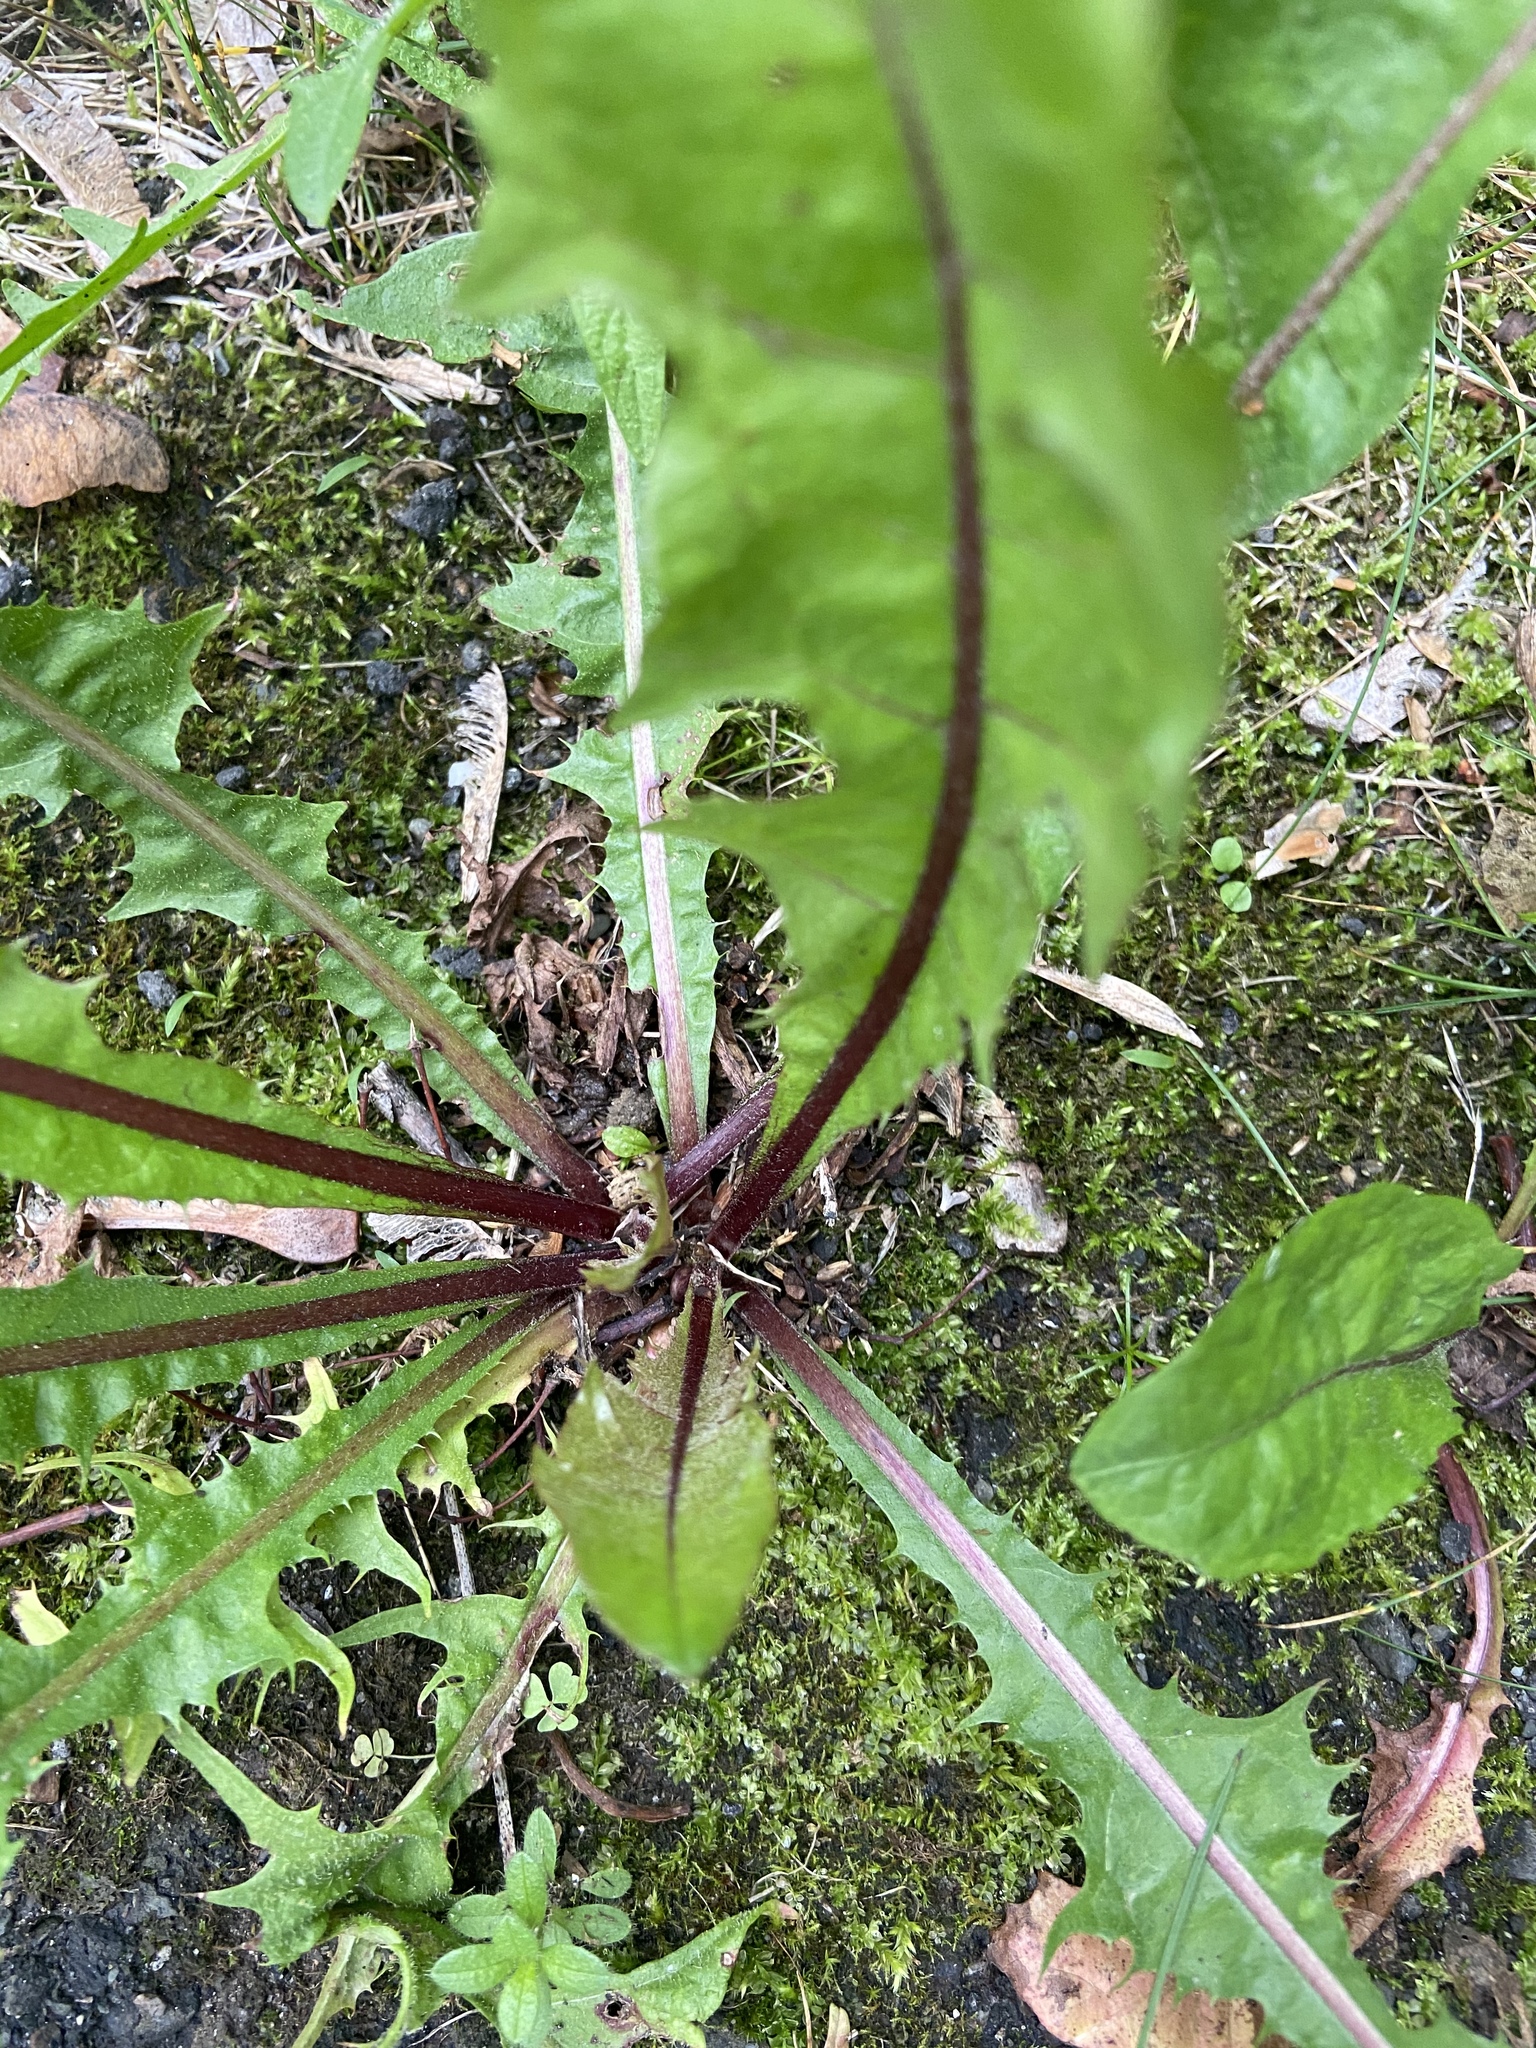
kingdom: Plantae
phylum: Tracheophyta
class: Magnoliopsida
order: Asterales
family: Asteraceae
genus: Taraxacum
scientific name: Taraxacum officinale
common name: Common dandelion
